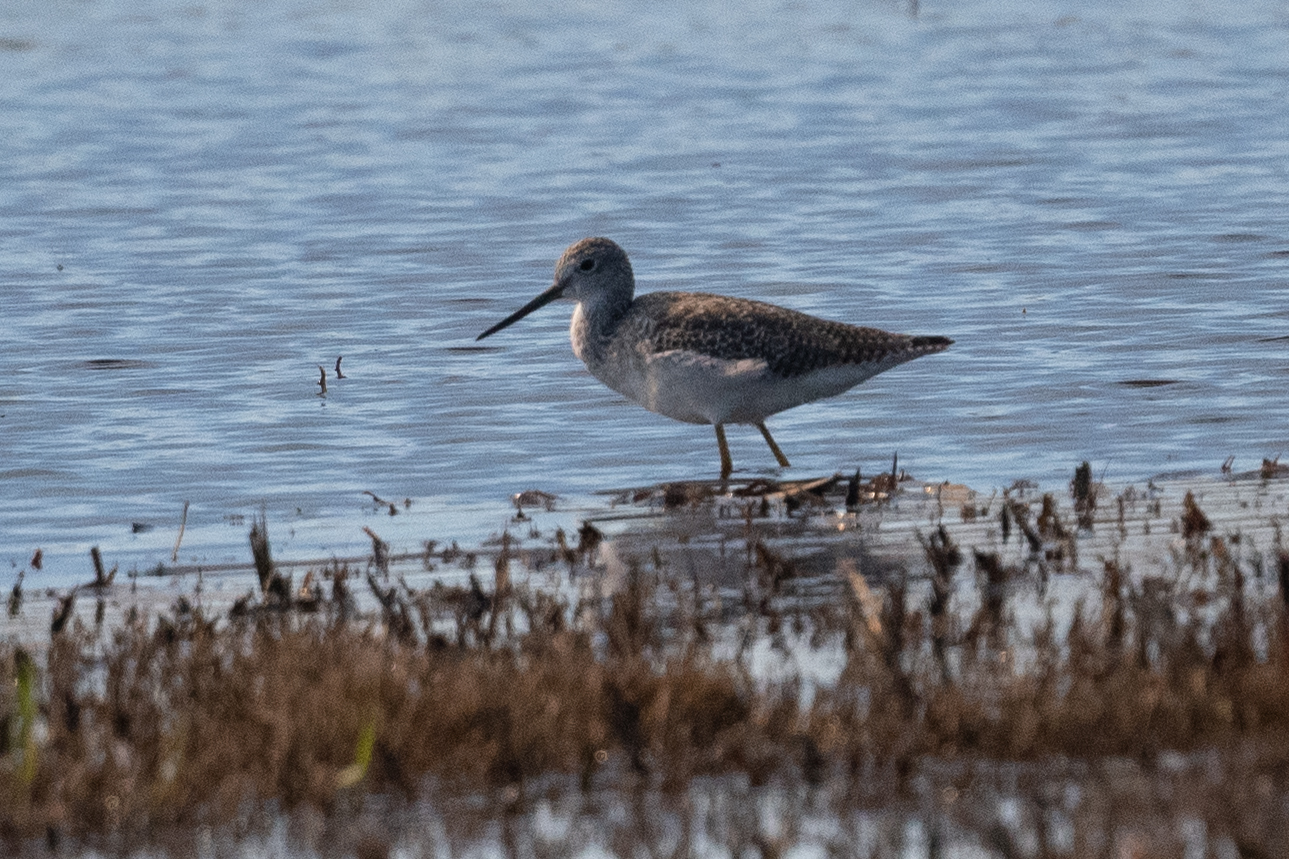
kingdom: Animalia
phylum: Chordata
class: Aves
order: Charadriiformes
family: Scolopacidae
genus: Tringa
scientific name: Tringa melanoleuca
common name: Greater yellowlegs
